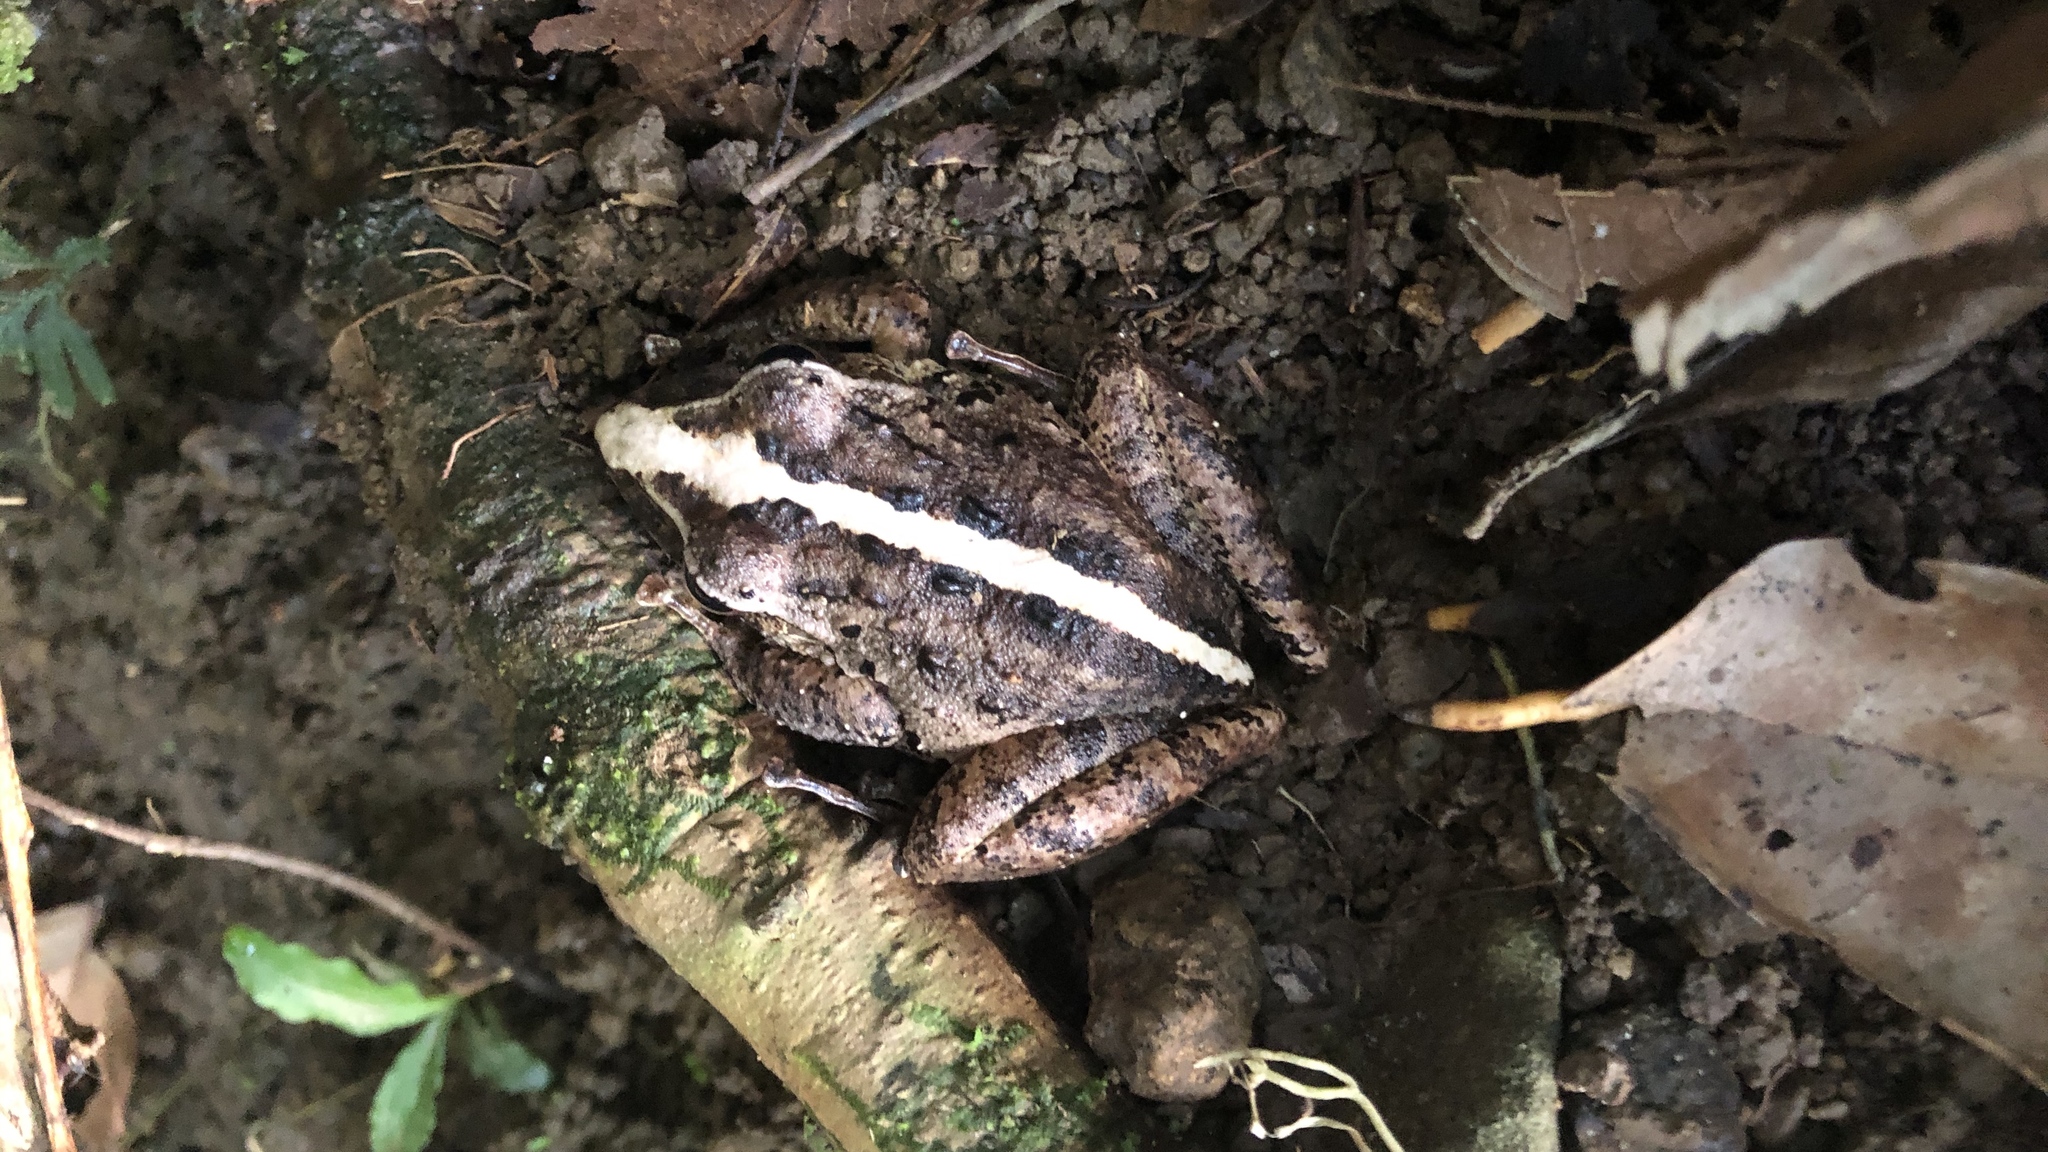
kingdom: Animalia
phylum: Chordata
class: Amphibia
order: Anura
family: Craugastoridae
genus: Craugastor
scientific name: Craugastor fitzingeri
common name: Fitzinger's robber frog
